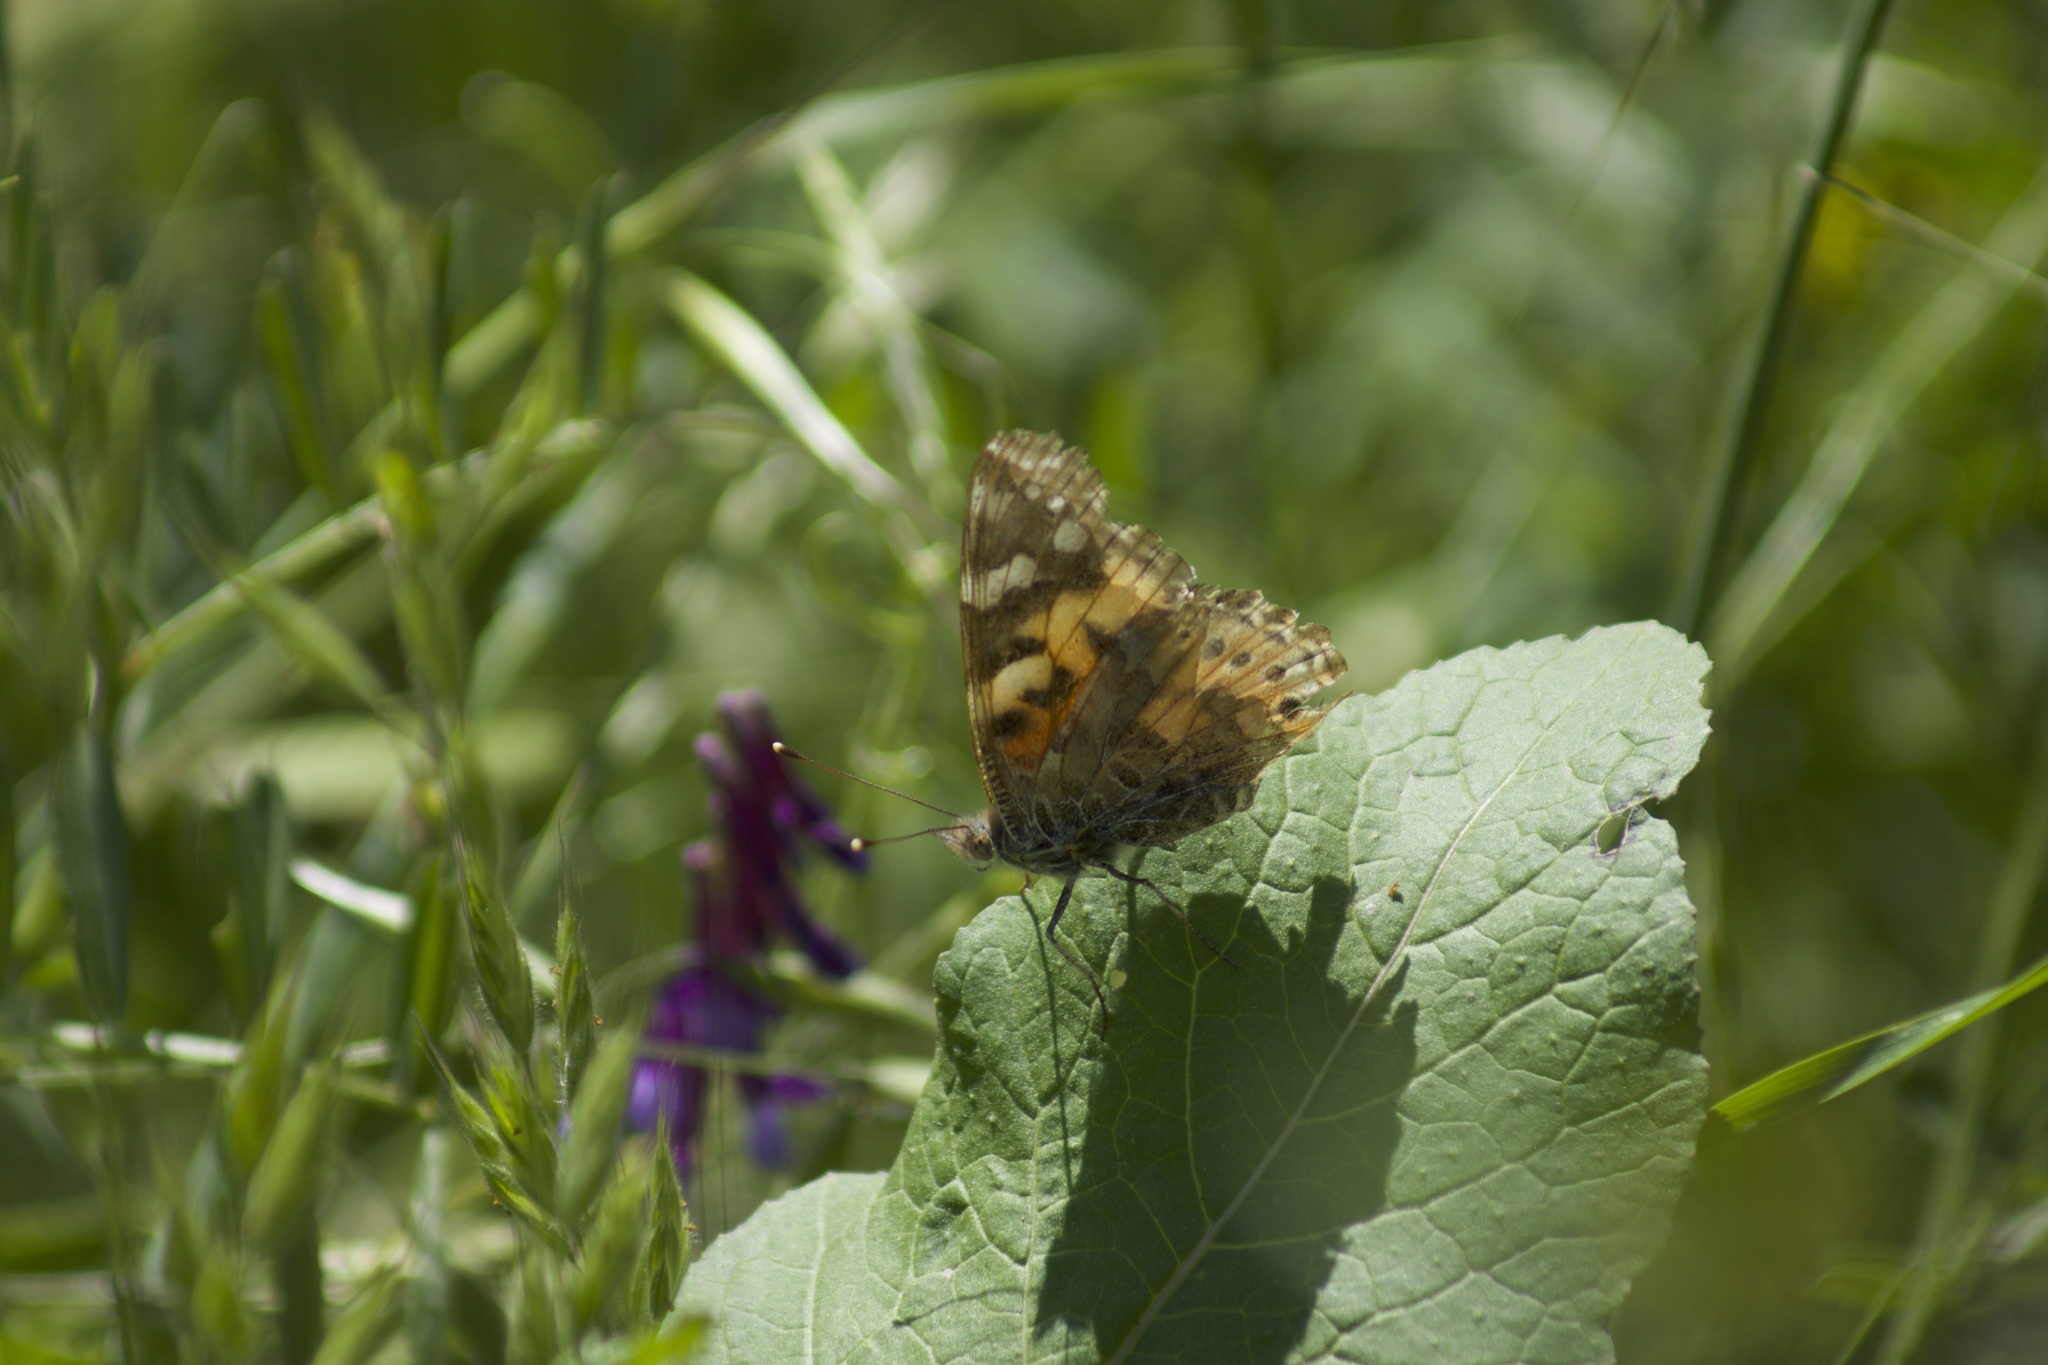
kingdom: Animalia
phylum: Arthropoda
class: Insecta
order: Lepidoptera
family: Nymphalidae
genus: Vanessa
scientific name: Vanessa cardui
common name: Painted lady
